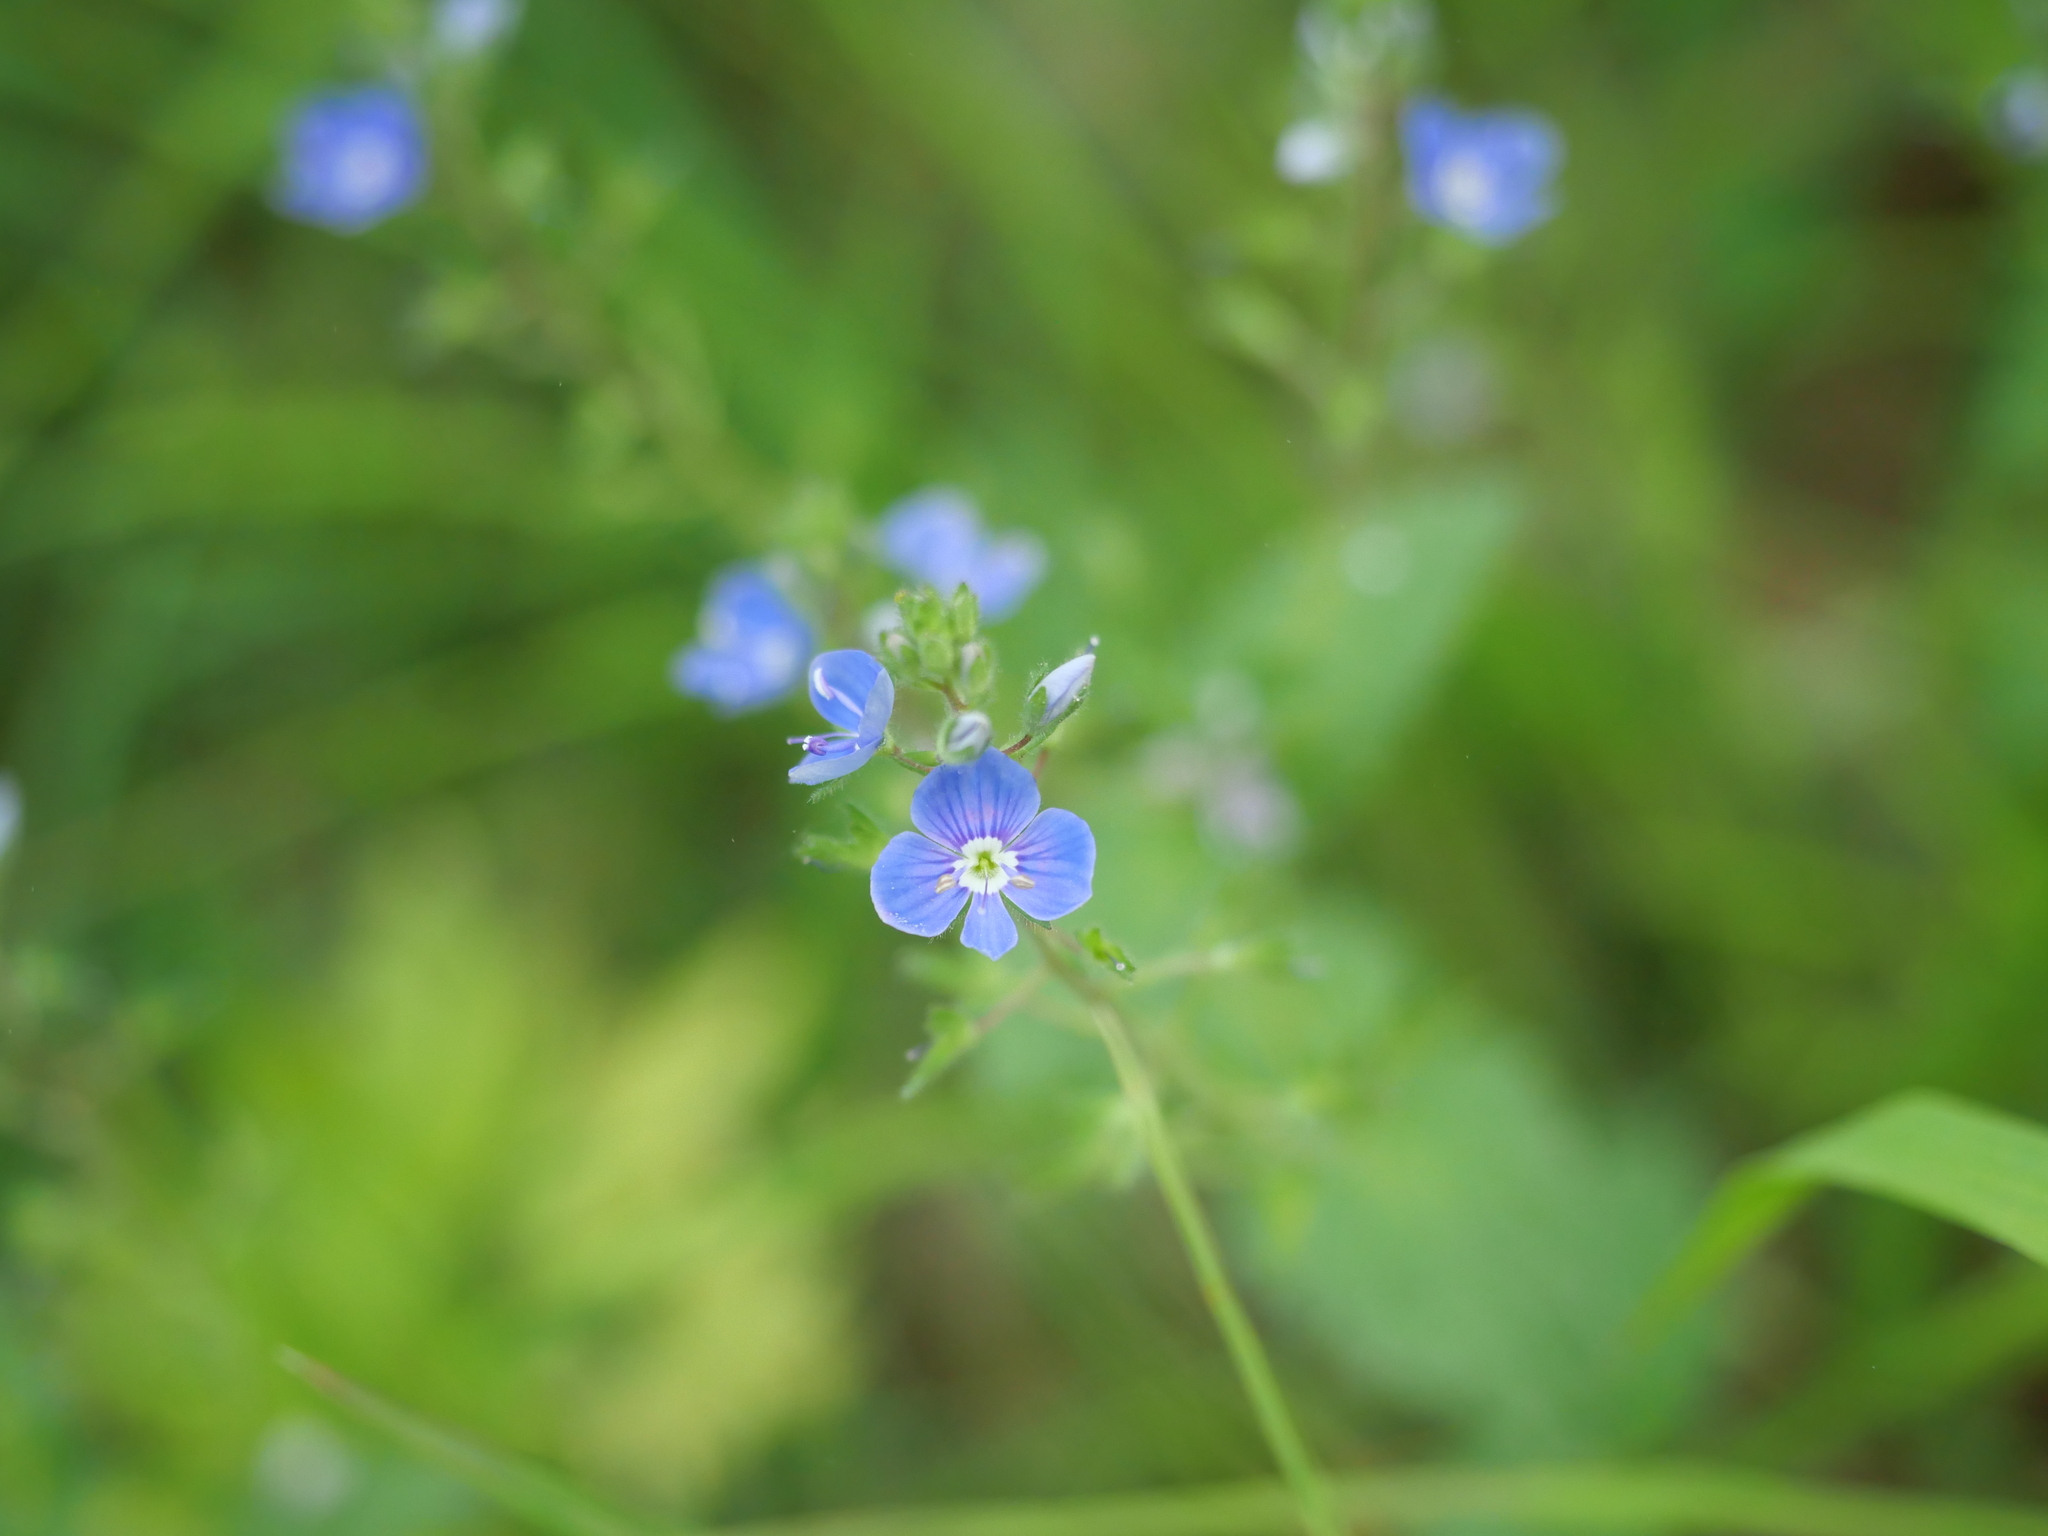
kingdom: Plantae
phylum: Tracheophyta
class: Magnoliopsida
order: Lamiales
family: Plantaginaceae
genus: Veronica
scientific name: Veronica chamaedrys
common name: Germander speedwell
